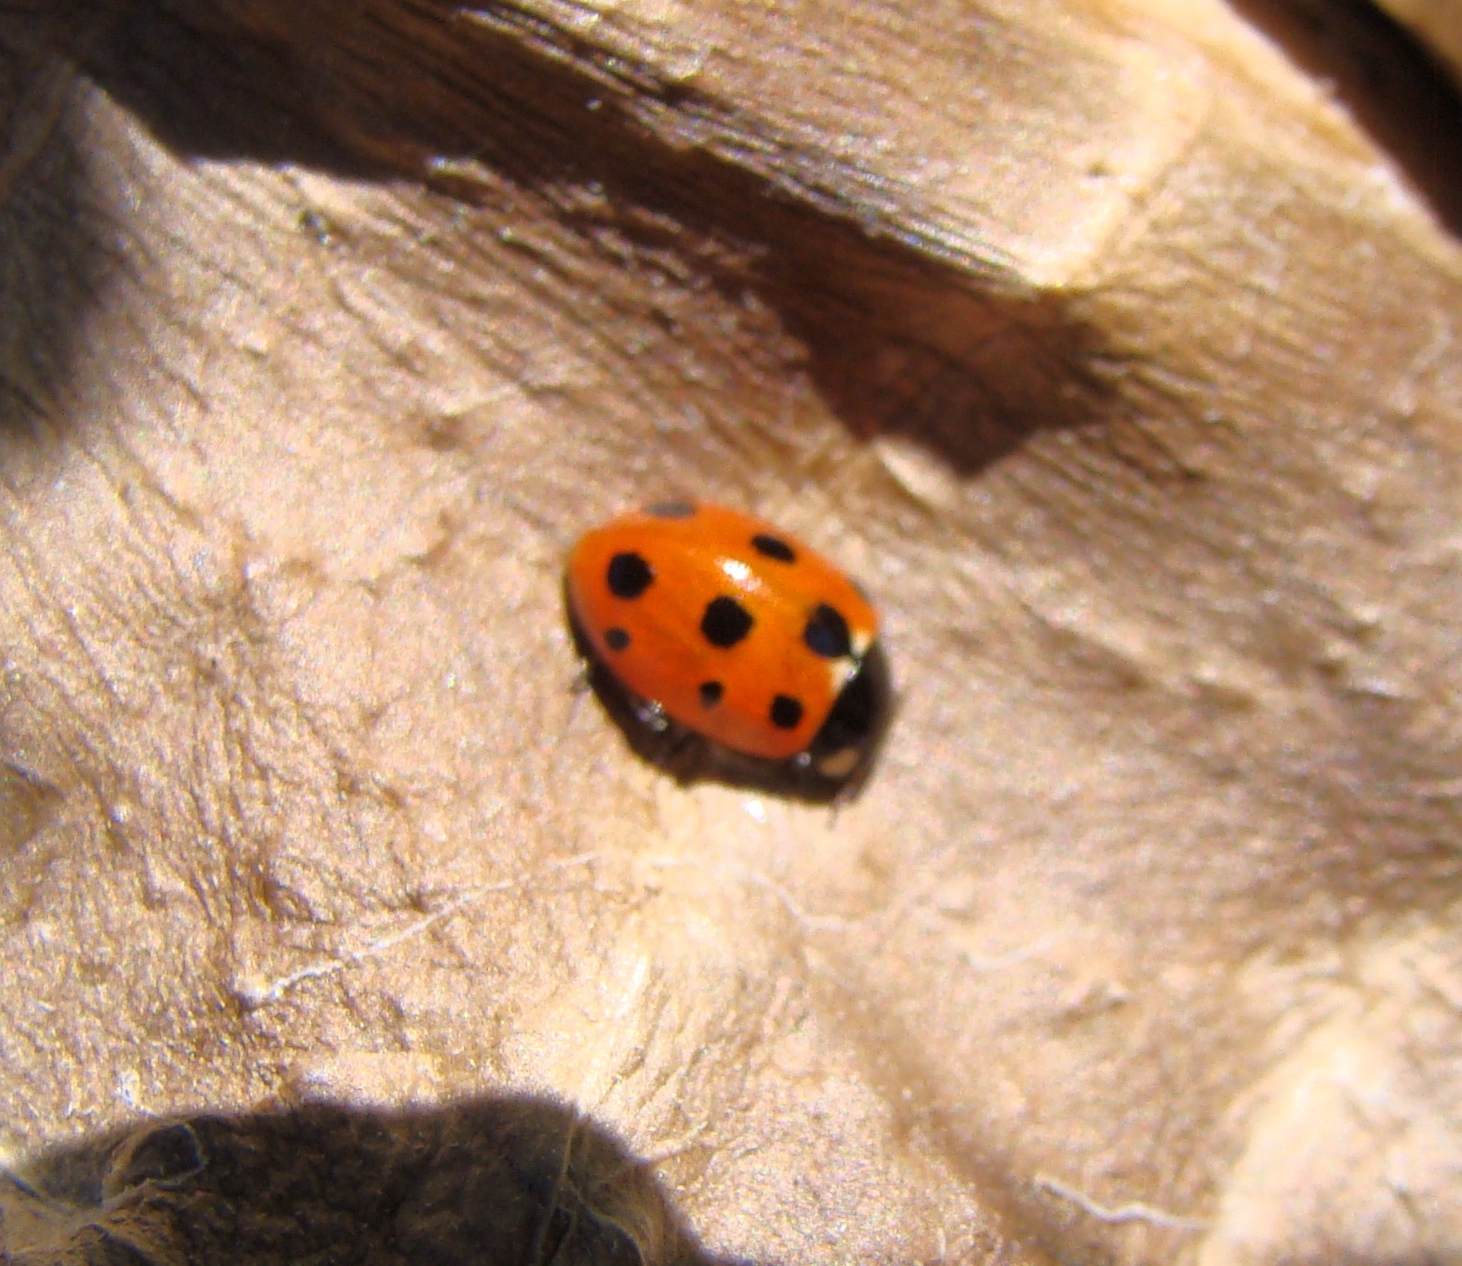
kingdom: Animalia
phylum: Arthropoda
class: Insecta
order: Coleoptera
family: Coccinellidae
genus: Coccinella
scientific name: Coccinella undecimpunctata
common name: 11-spot ladybird
